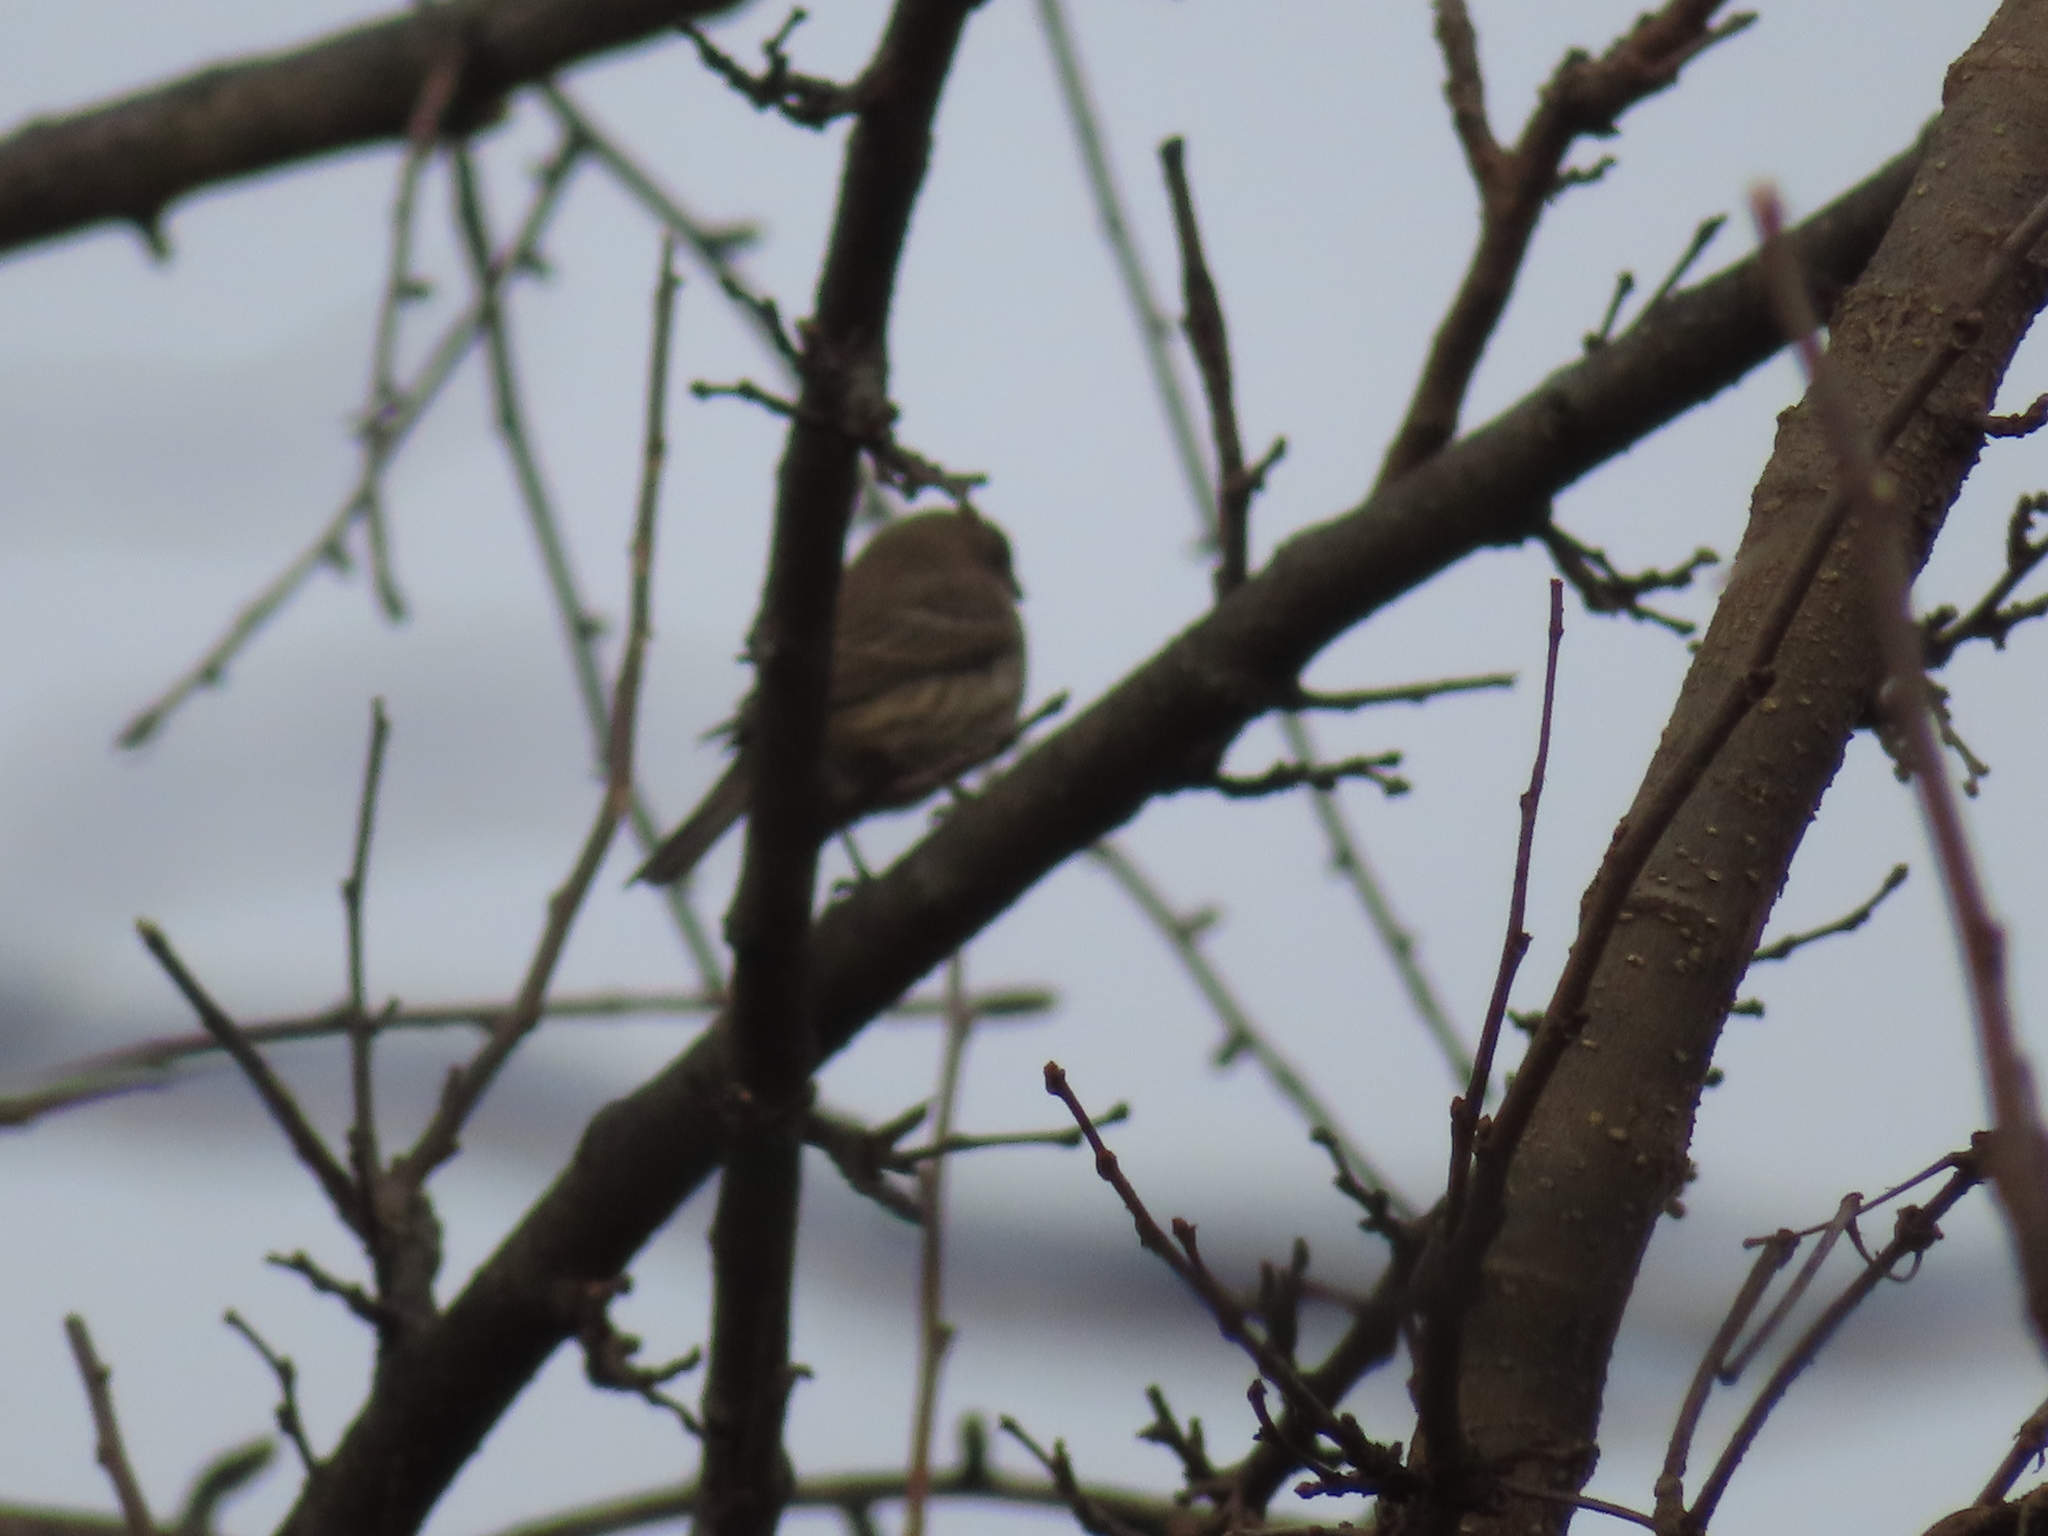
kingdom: Animalia
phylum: Chordata
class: Aves
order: Passeriformes
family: Fringillidae
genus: Haemorhous
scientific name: Haemorhous mexicanus
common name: House finch
